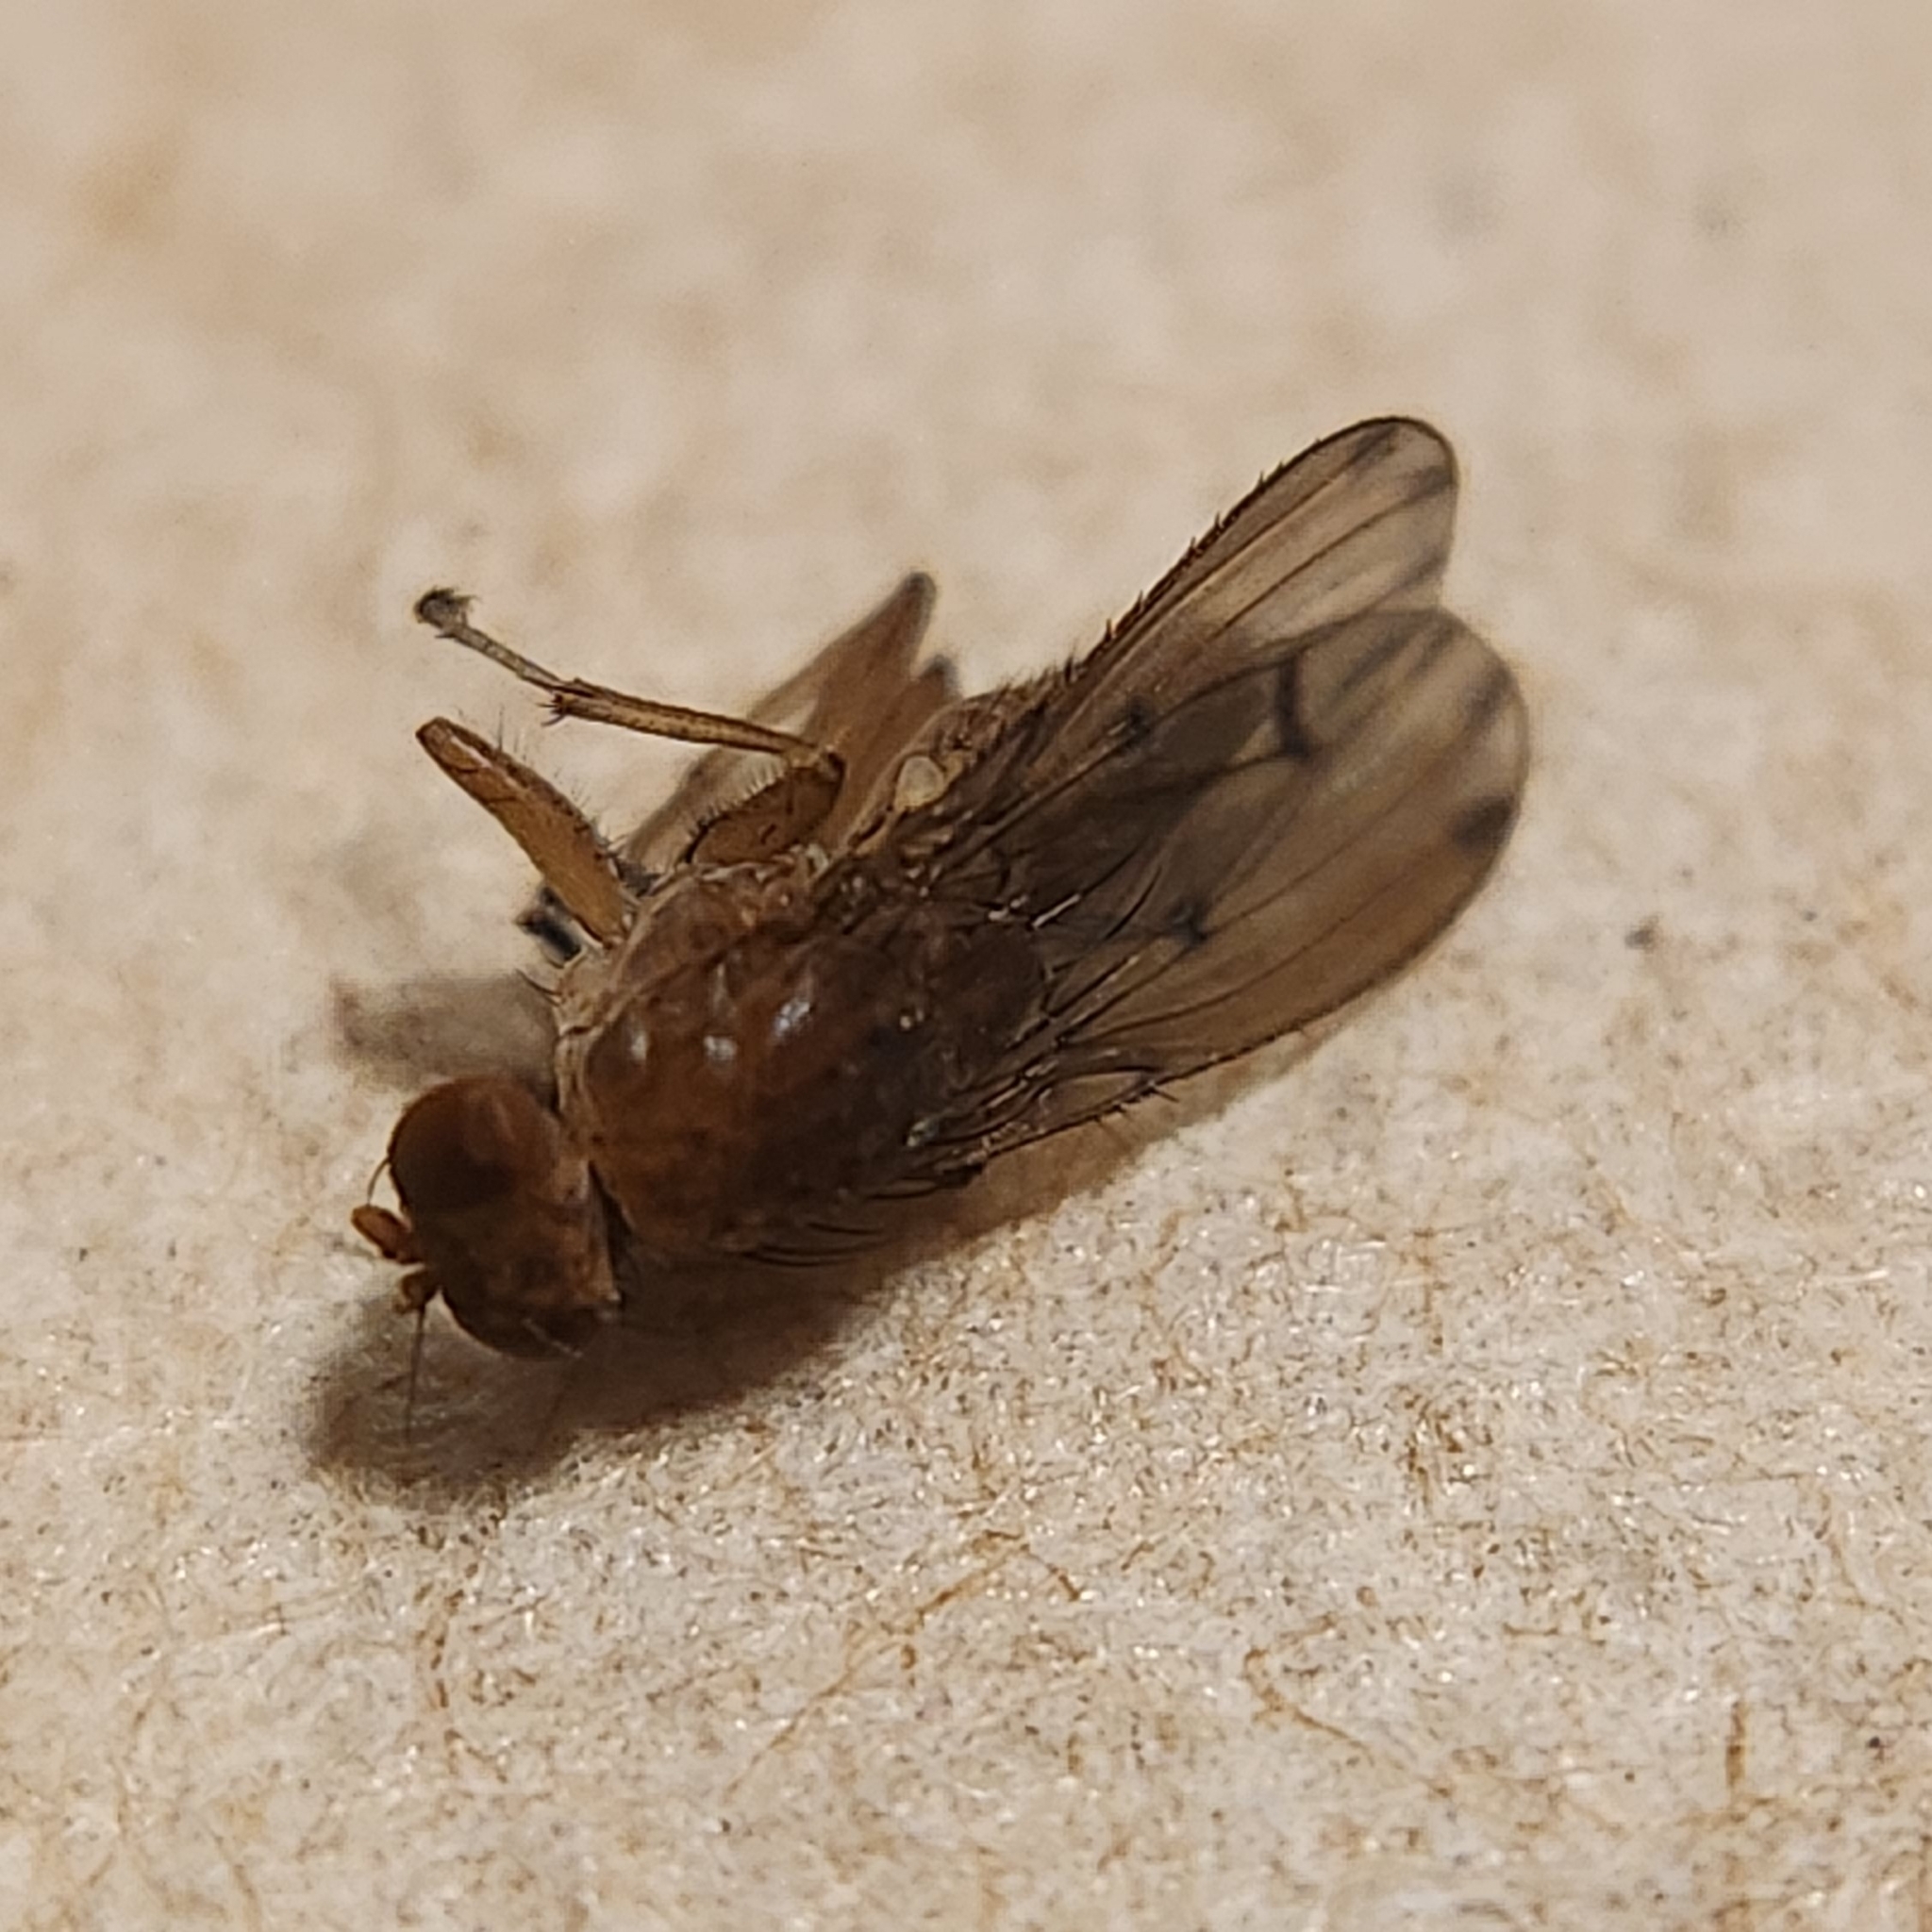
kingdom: Animalia
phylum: Arthropoda
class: Insecta
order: Diptera
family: Heleomyzidae
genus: Suillia
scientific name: Suillia quinquepunctata
